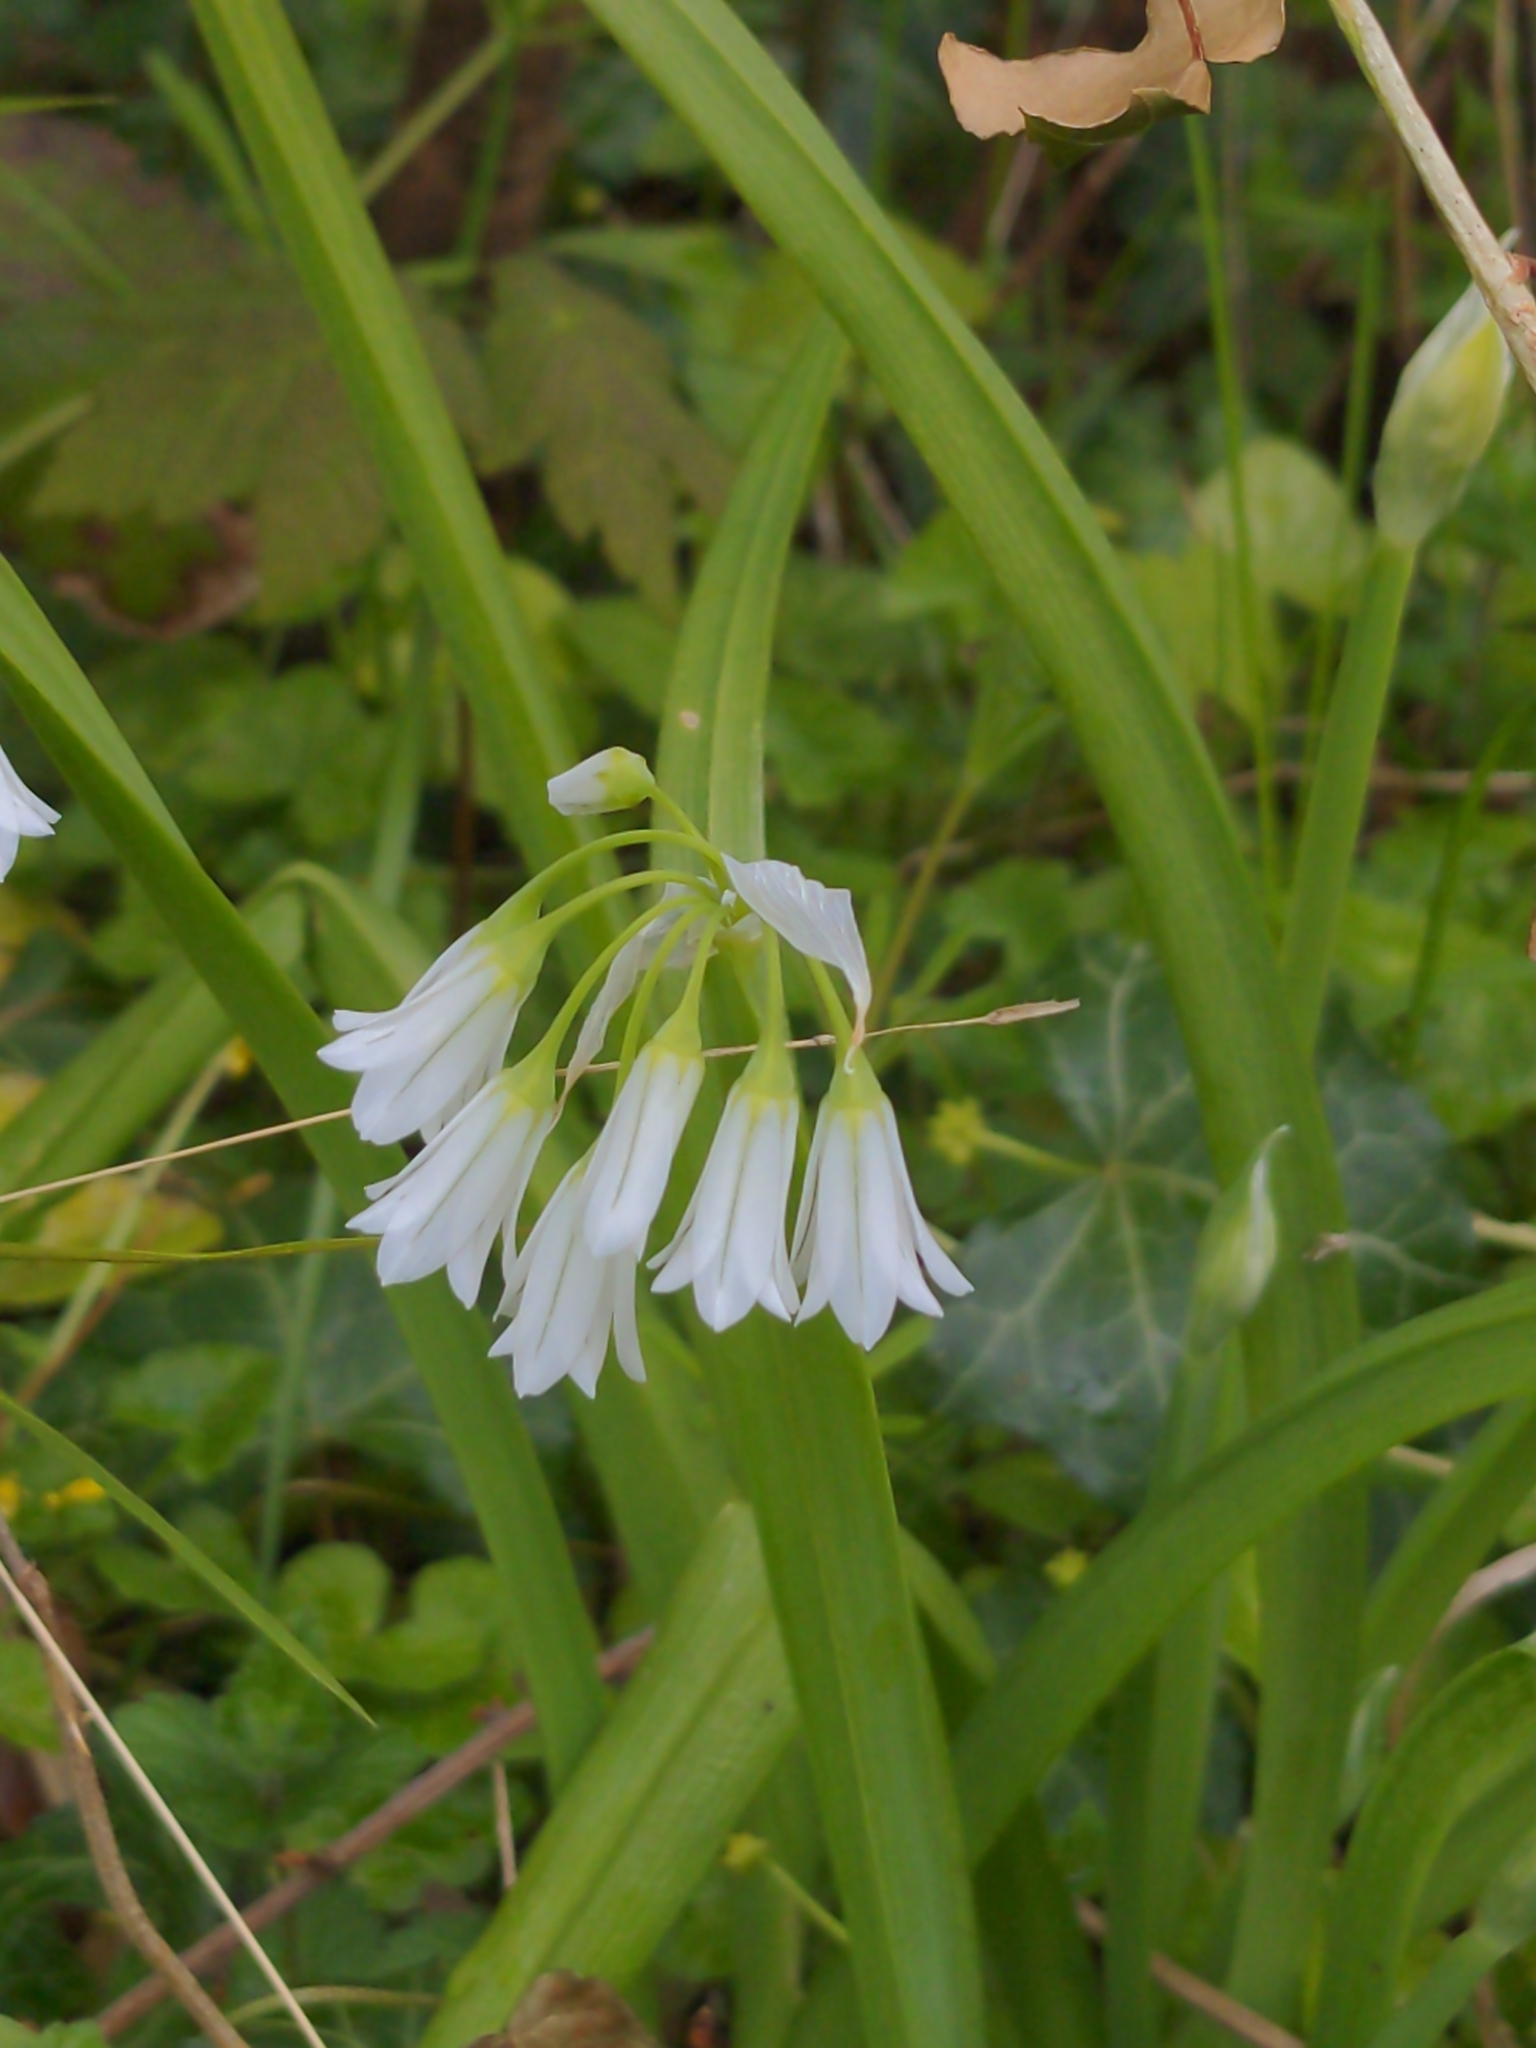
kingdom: Plantae
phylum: Tracheophyta
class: Liliopsida
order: Asparagales
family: Amaryllidaceae
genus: Allium
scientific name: Allium triquetrum
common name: Three-cornered garlic
